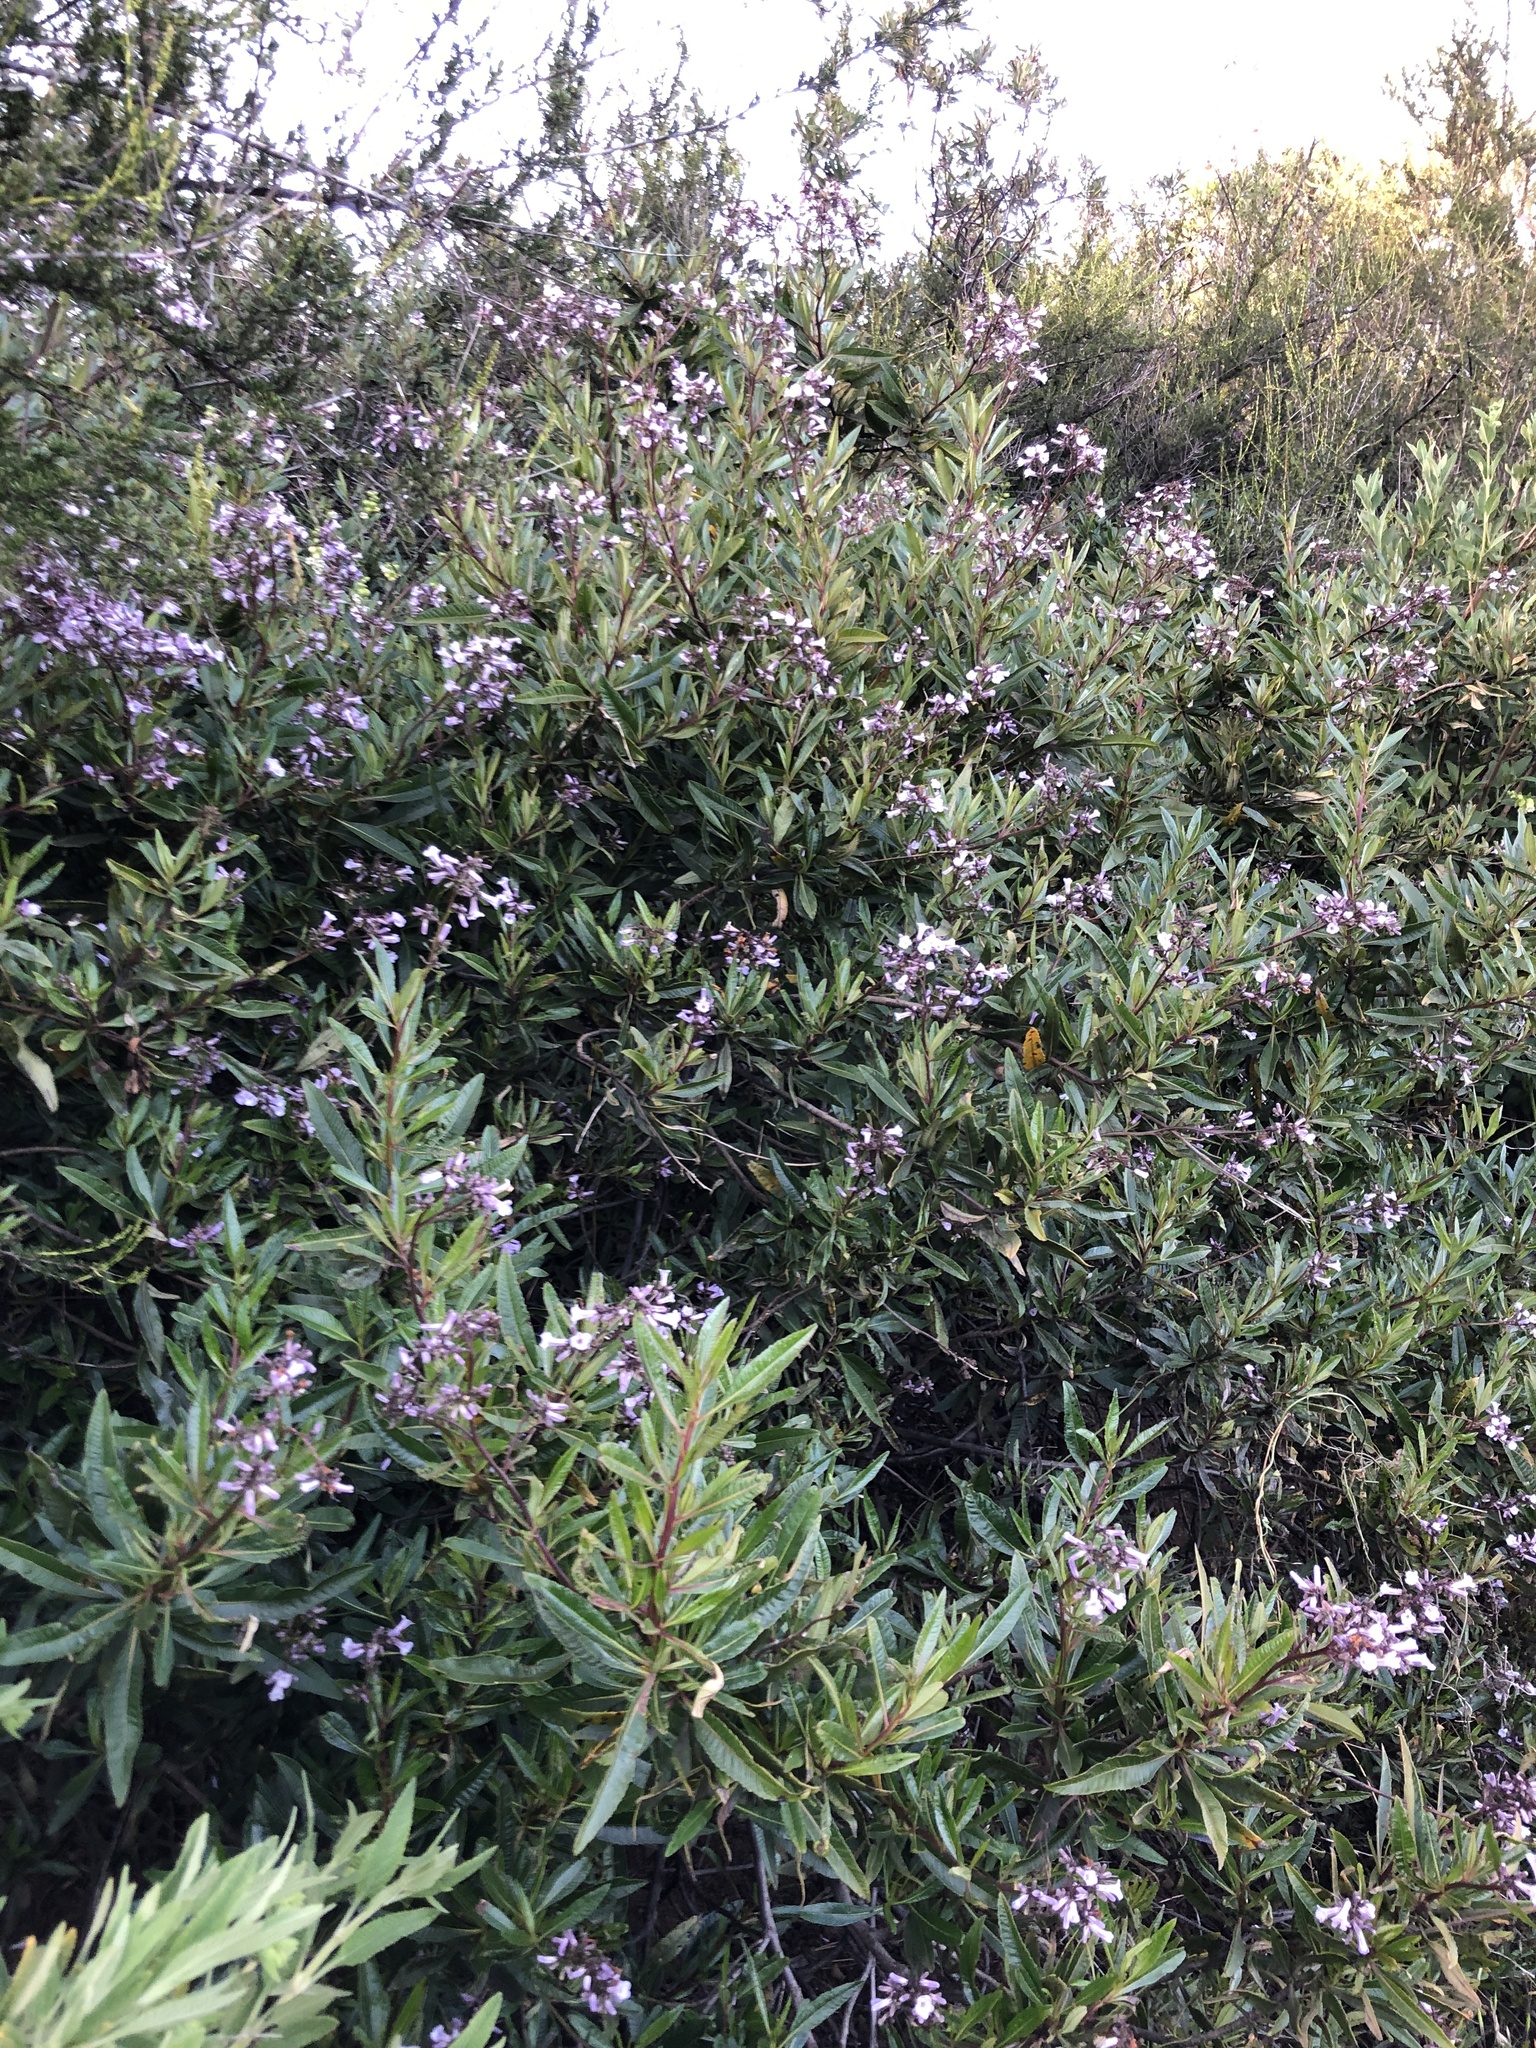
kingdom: Plantae
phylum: Tracheophyta
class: Magnoliopsida
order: Boraginales
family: Namaceae
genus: Eriodictyon
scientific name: Eriodictyon californicum
